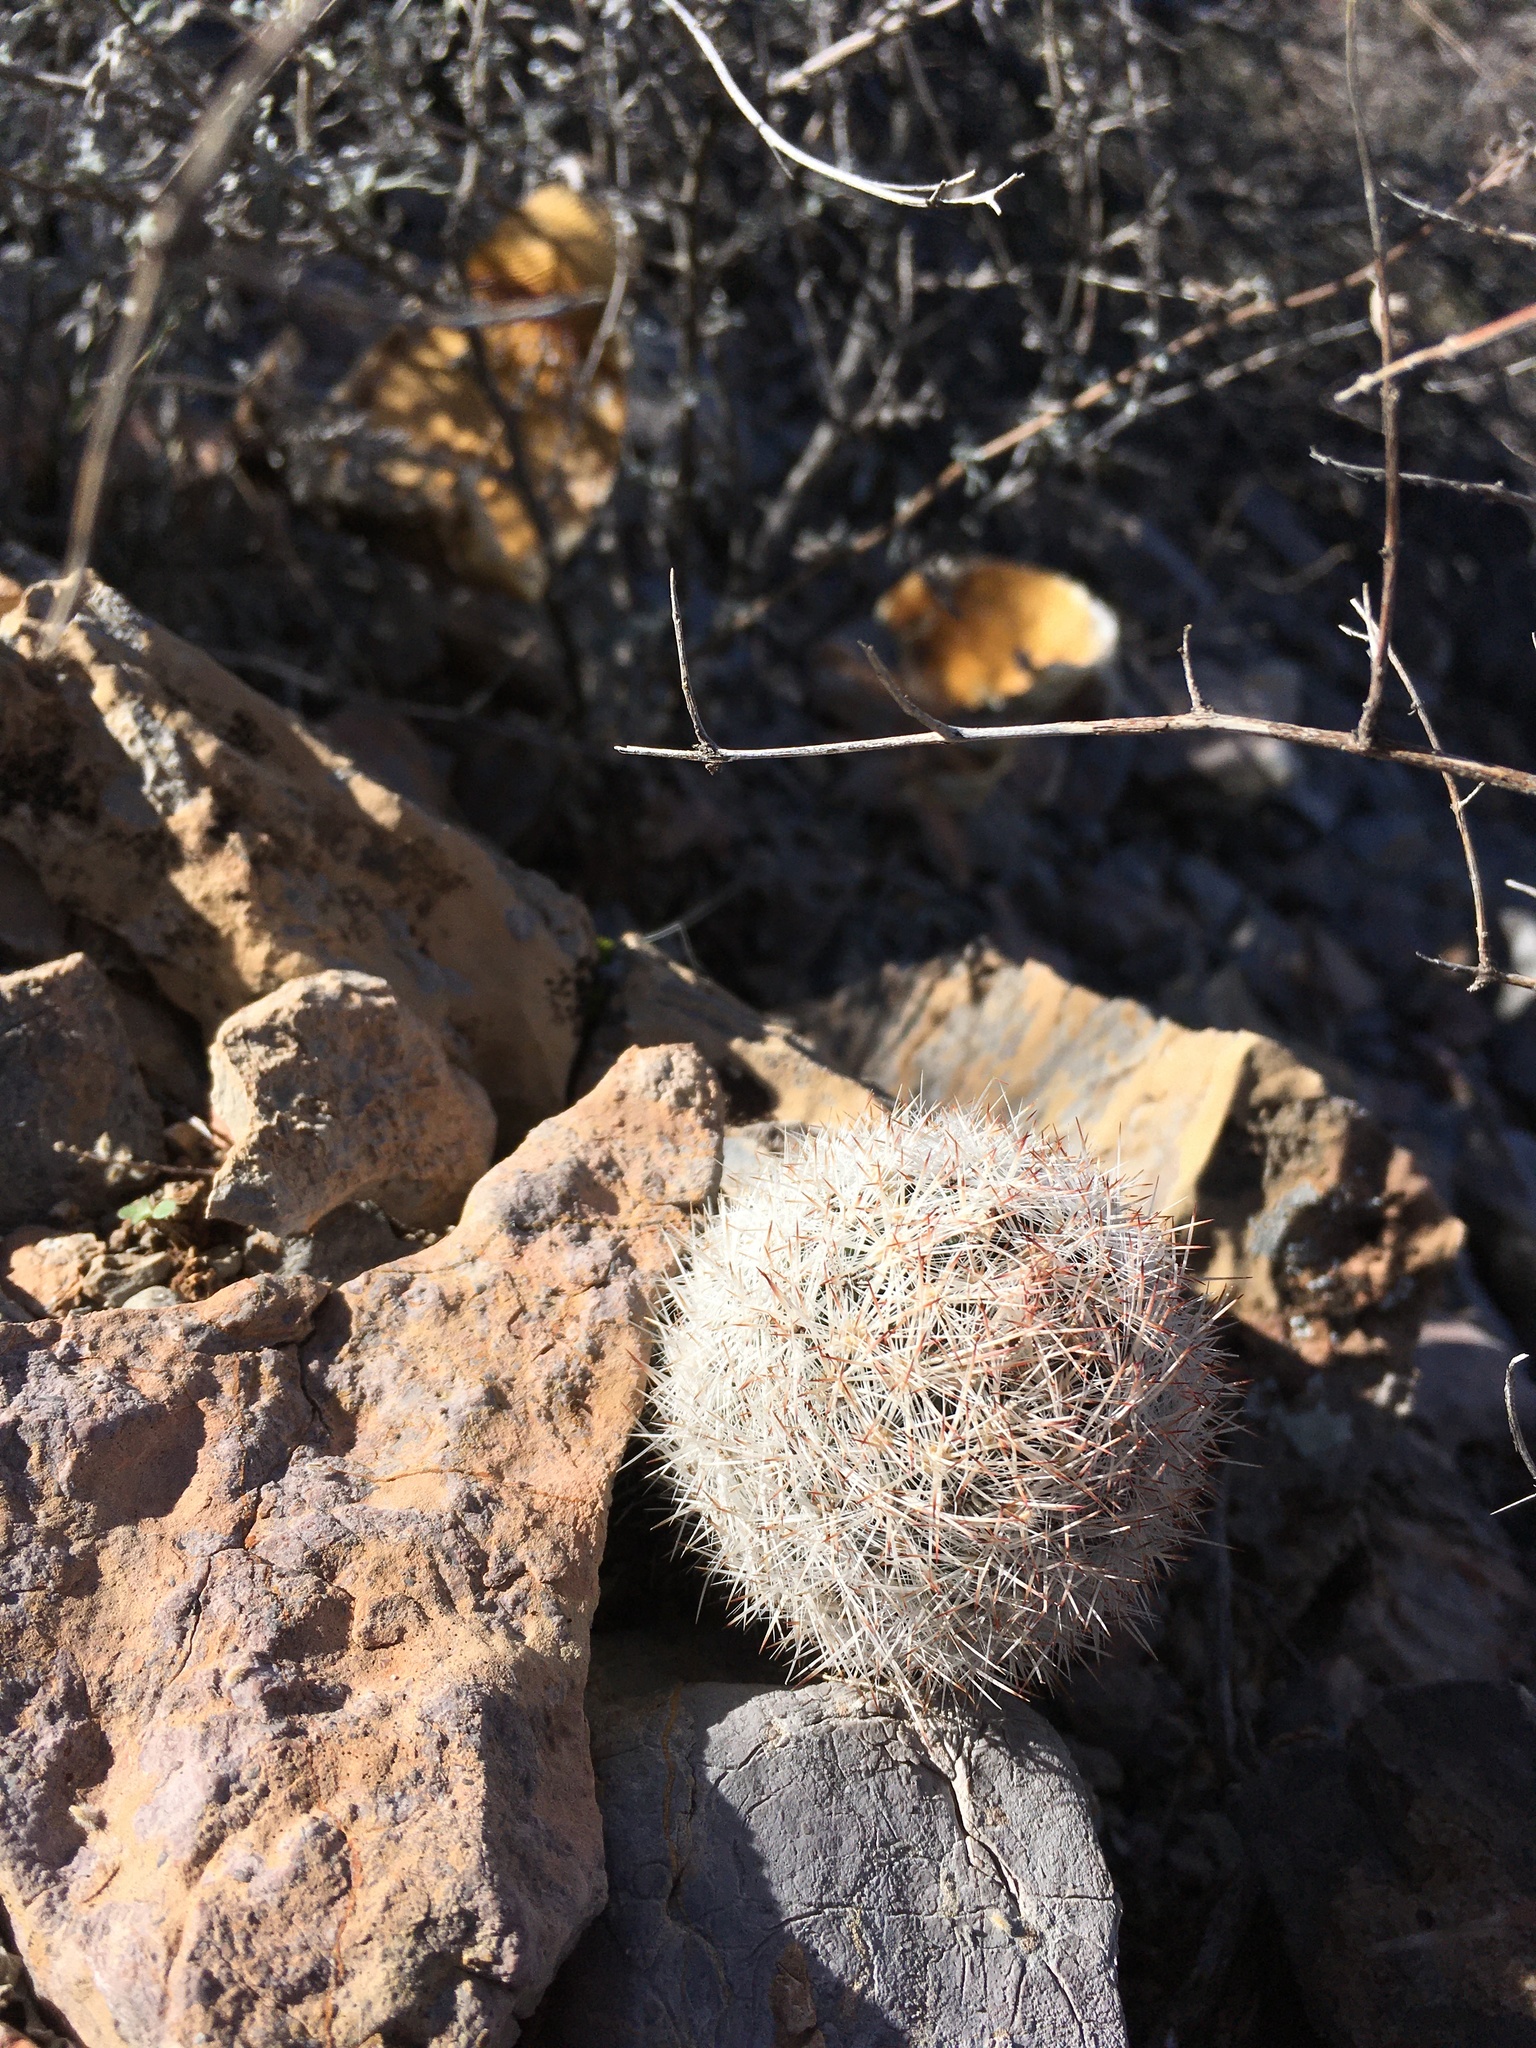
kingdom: Plantae
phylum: Tracheophyta
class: Magnoliopsida
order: Caryophyllales
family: Cactaceae
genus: Pelecyphora
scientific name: Pelecyphora sneedii
